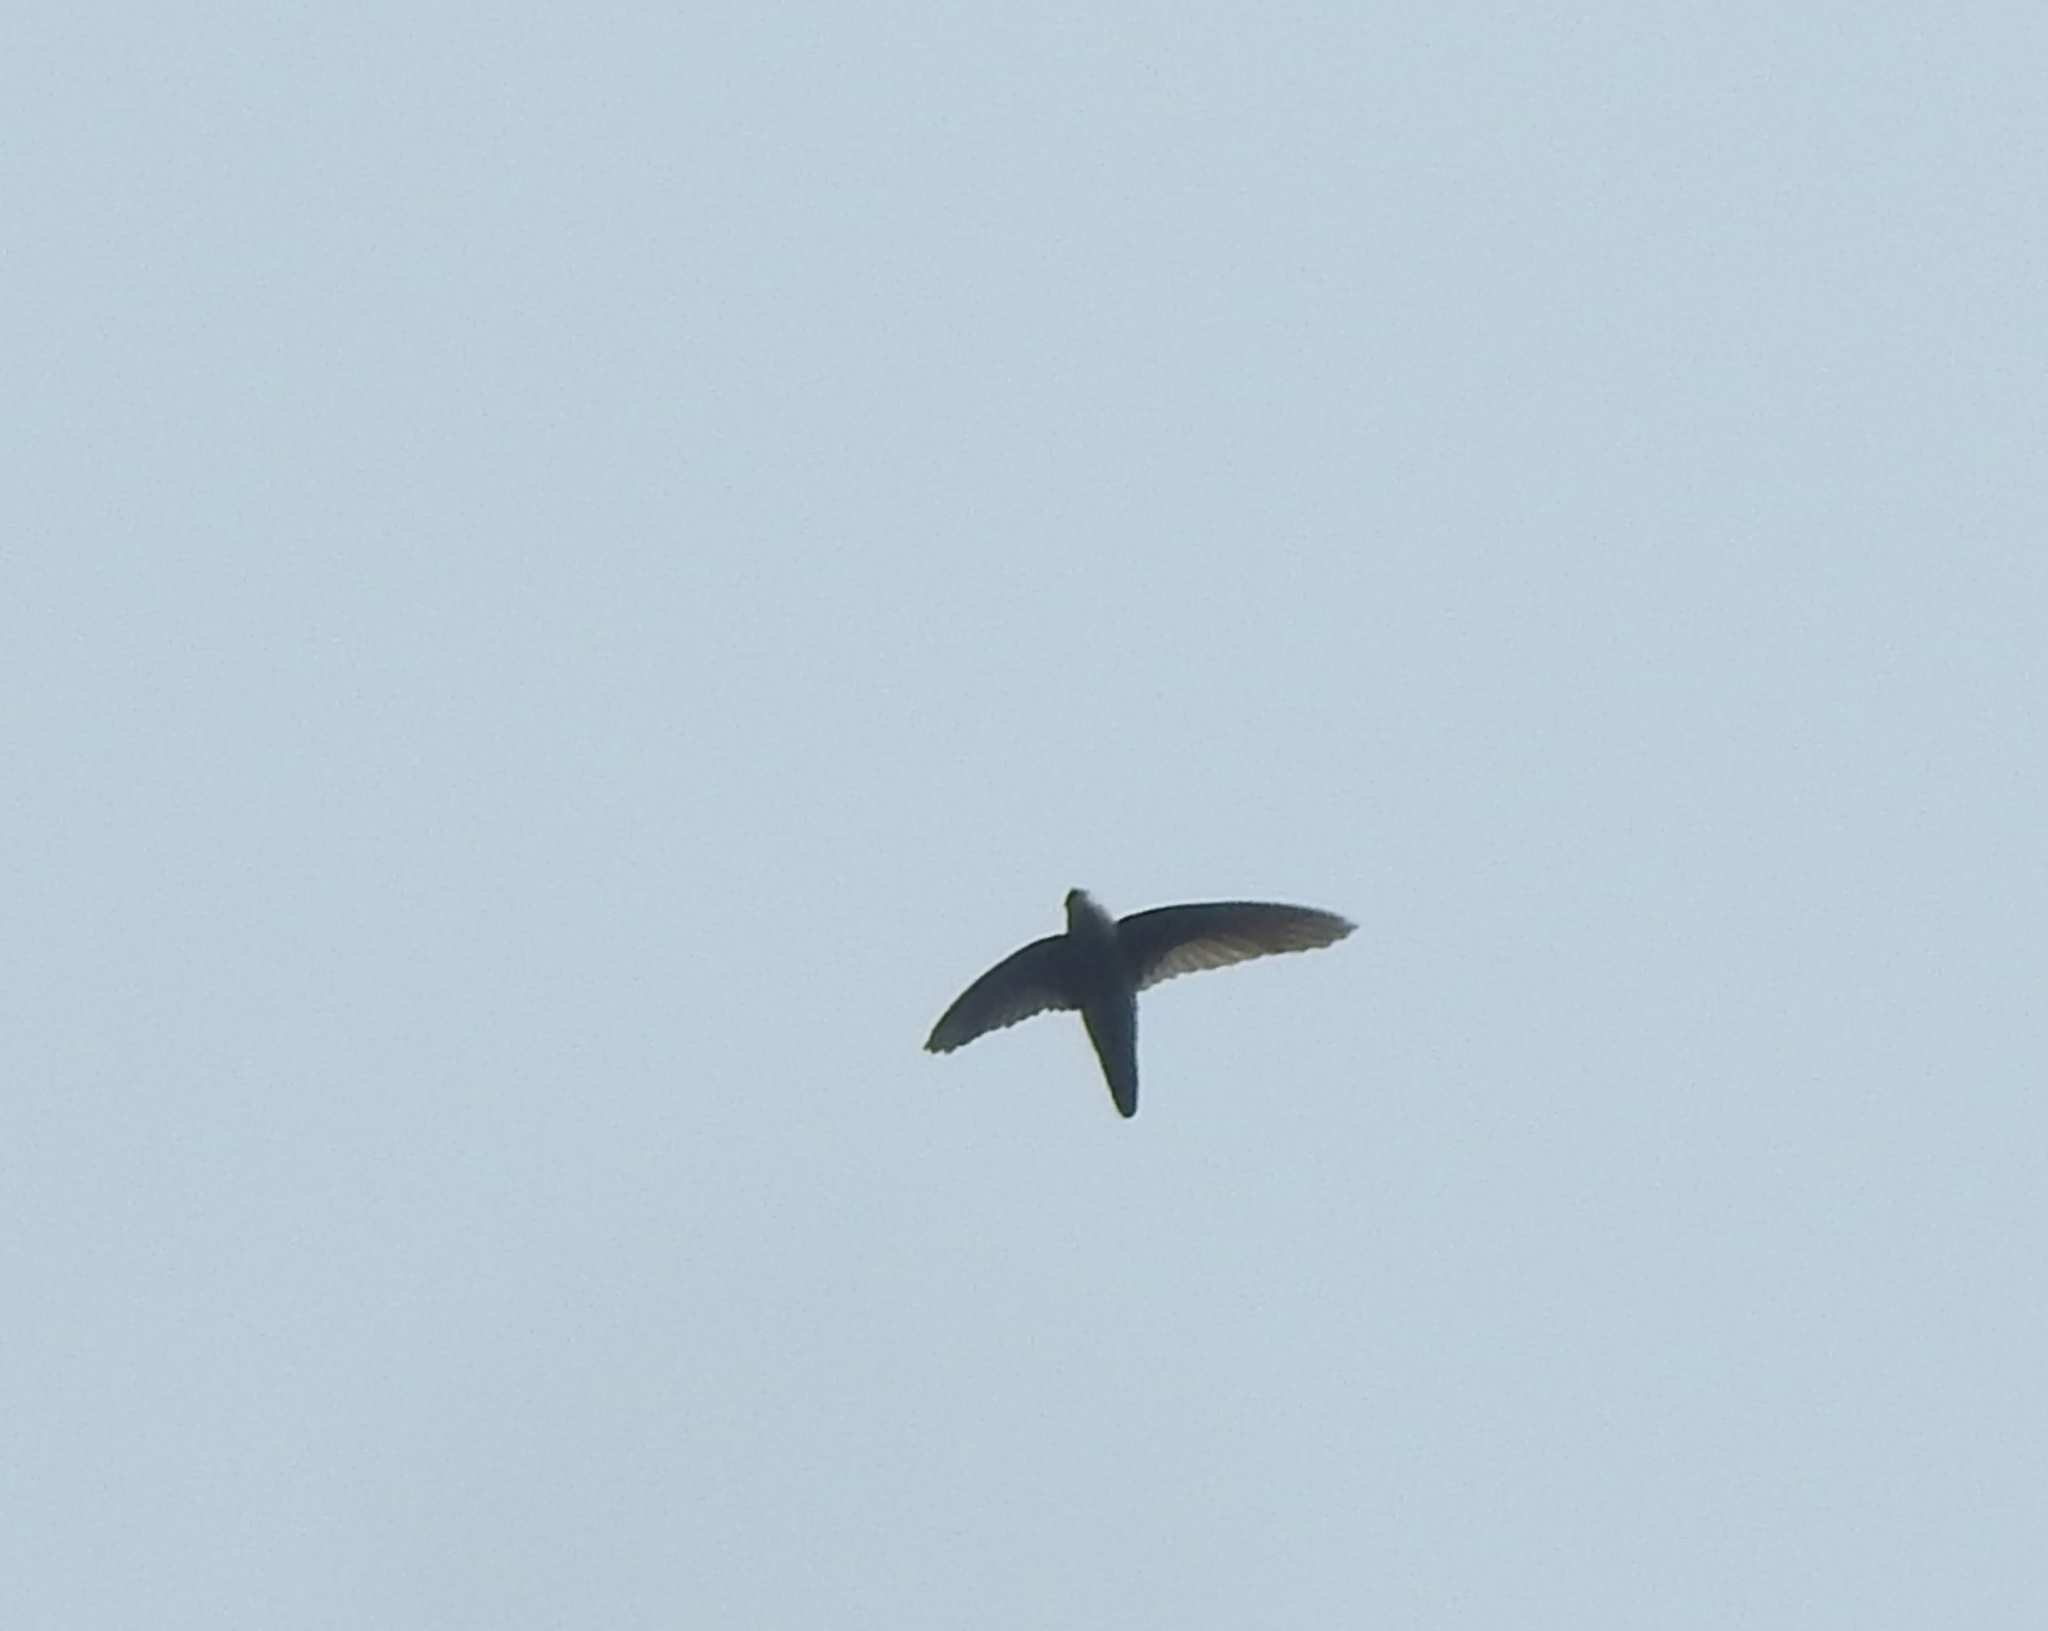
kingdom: Animalia
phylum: Chordata
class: Aves
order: Apodiformes
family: Apodidae
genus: Aerodramus
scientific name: Aerodramus unicolor
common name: Indian swiftlet
